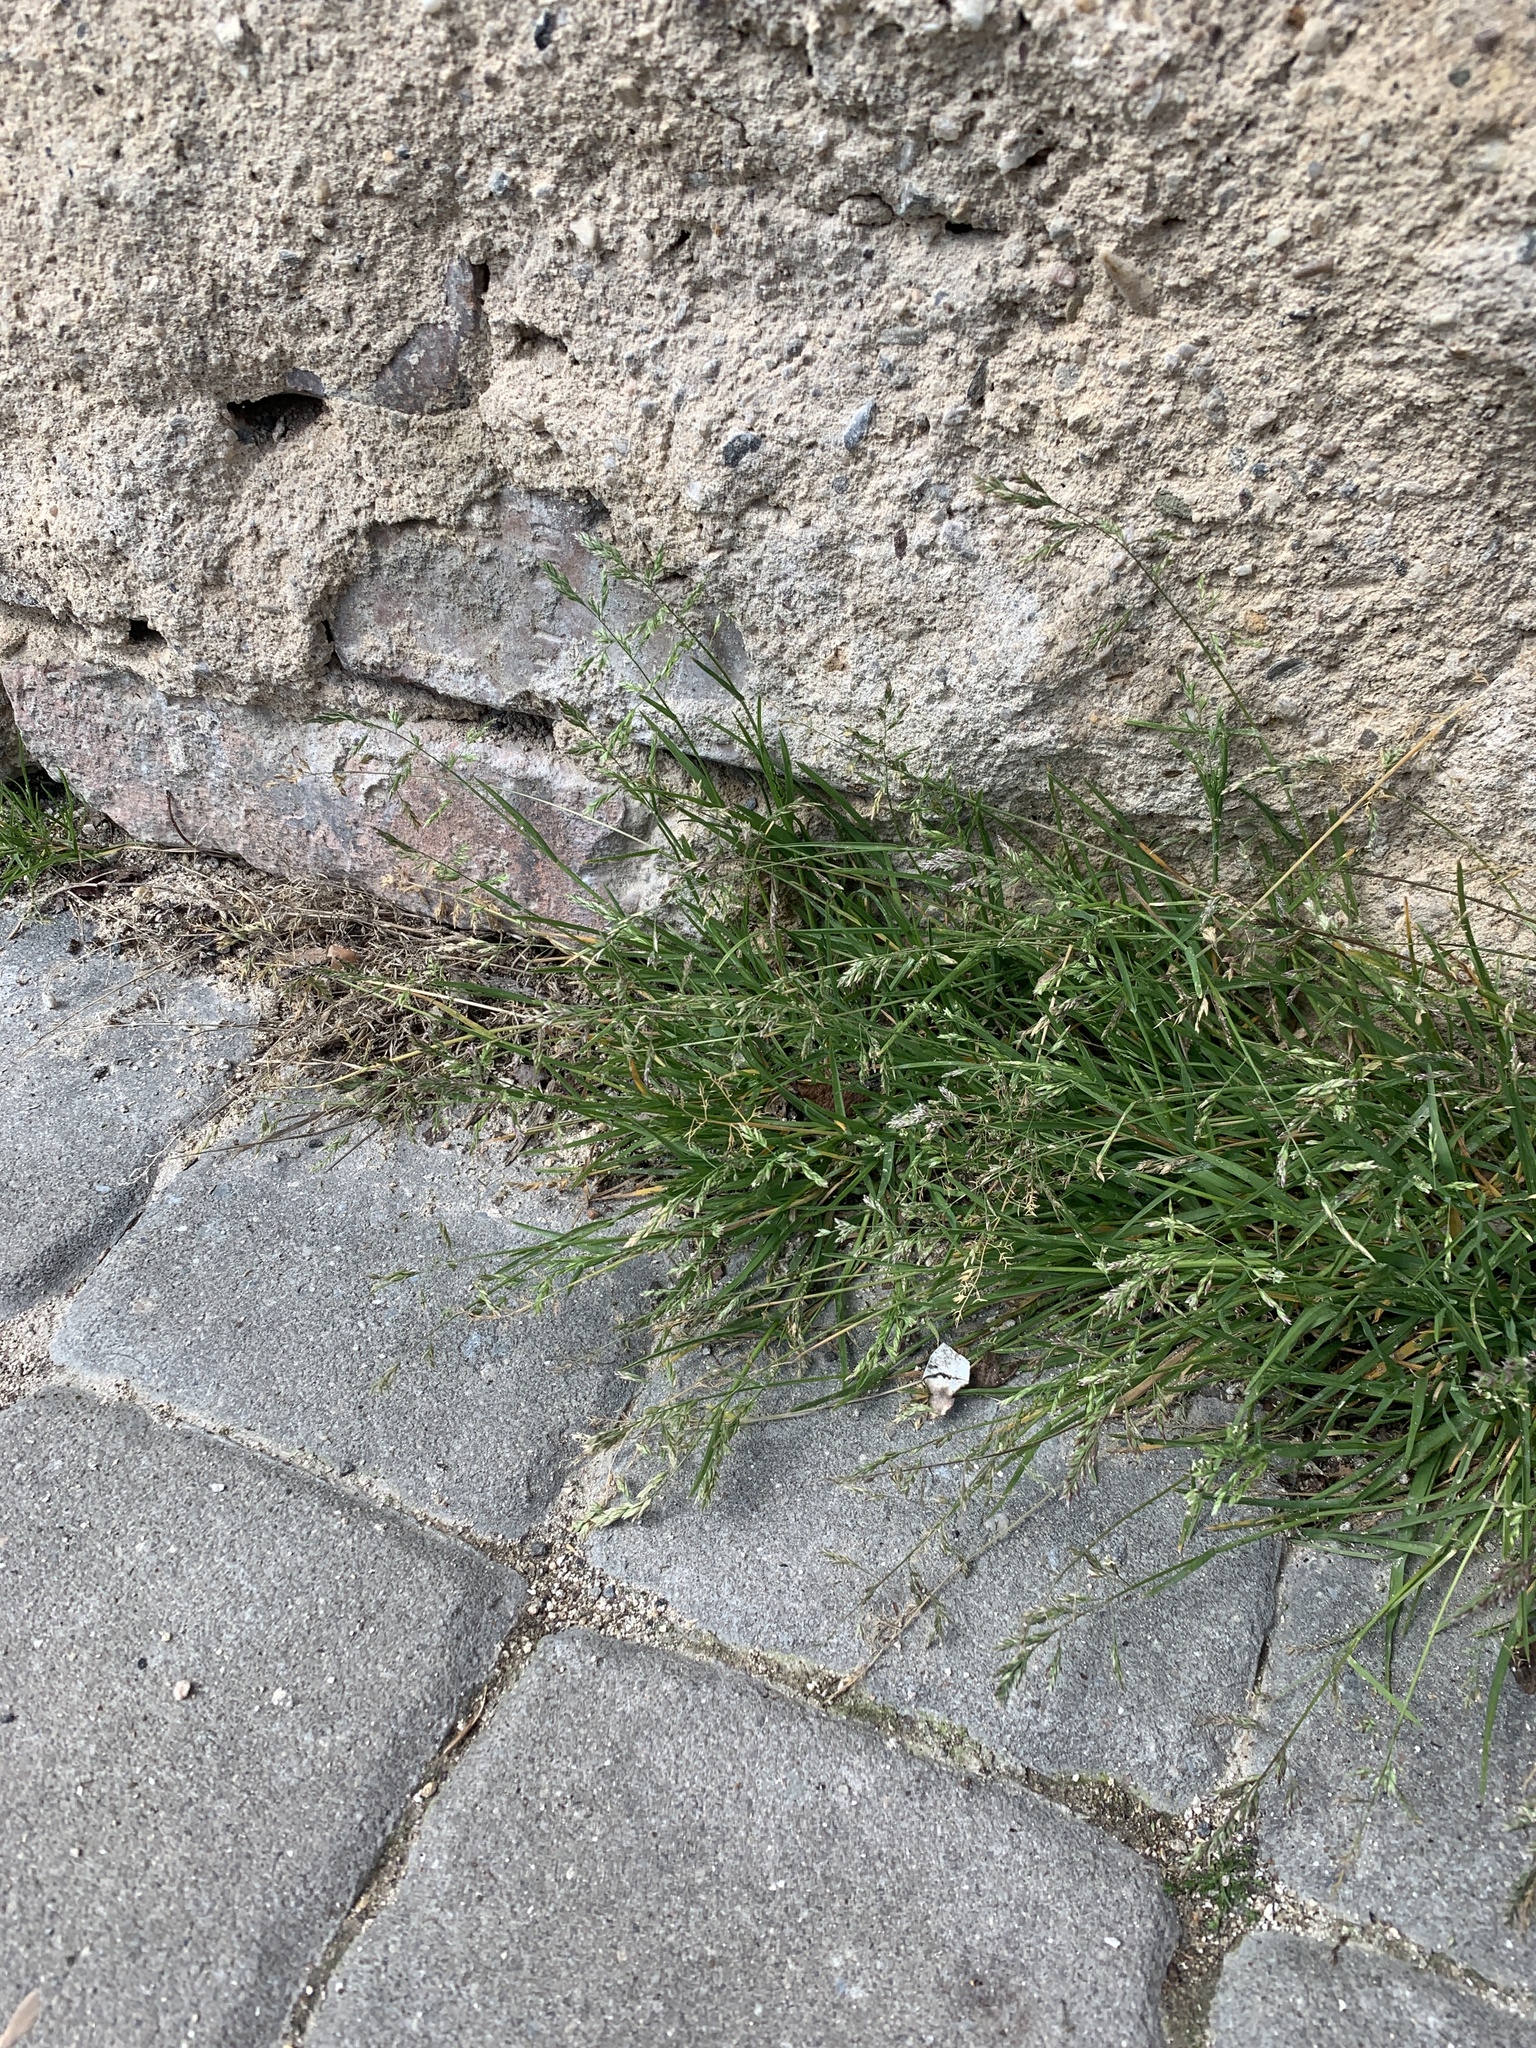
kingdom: Plantae
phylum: Tracheophyta
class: Liliopsida
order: Poales
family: Poaceae
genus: Poa
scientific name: Poa annua
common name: Annual bluegrass
